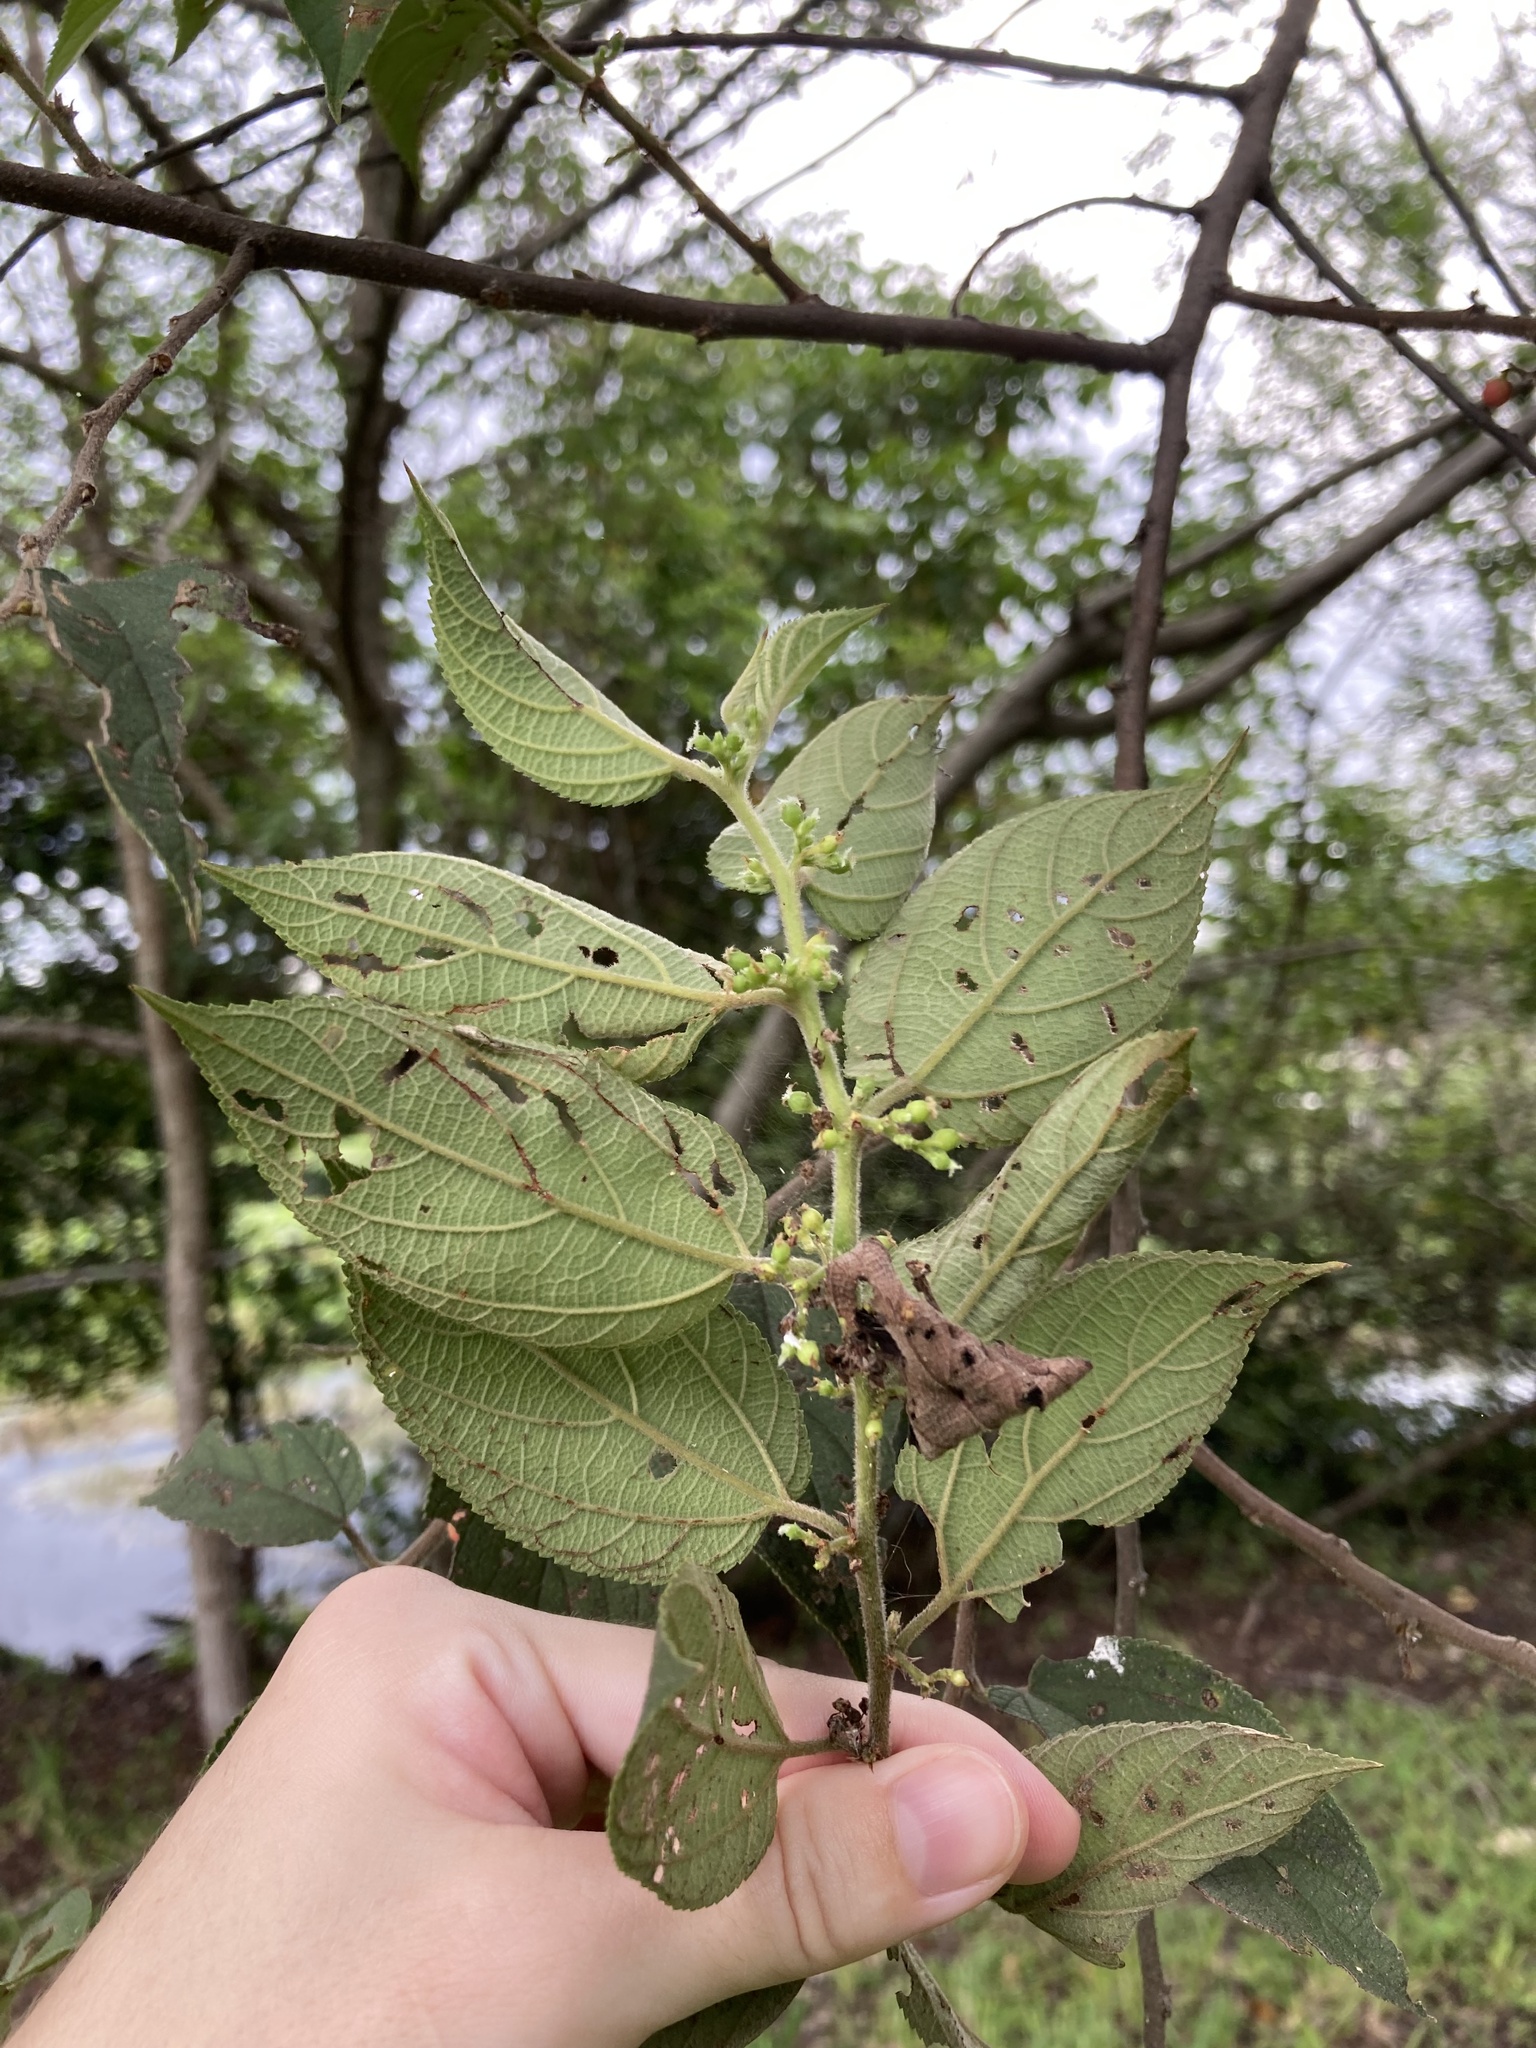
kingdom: Plantae
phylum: Tracheophyta
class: Magnoliopsida
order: Rosales
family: Cannabaceae
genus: Trema
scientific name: Trema micranthum
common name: Jamaican nettletree
